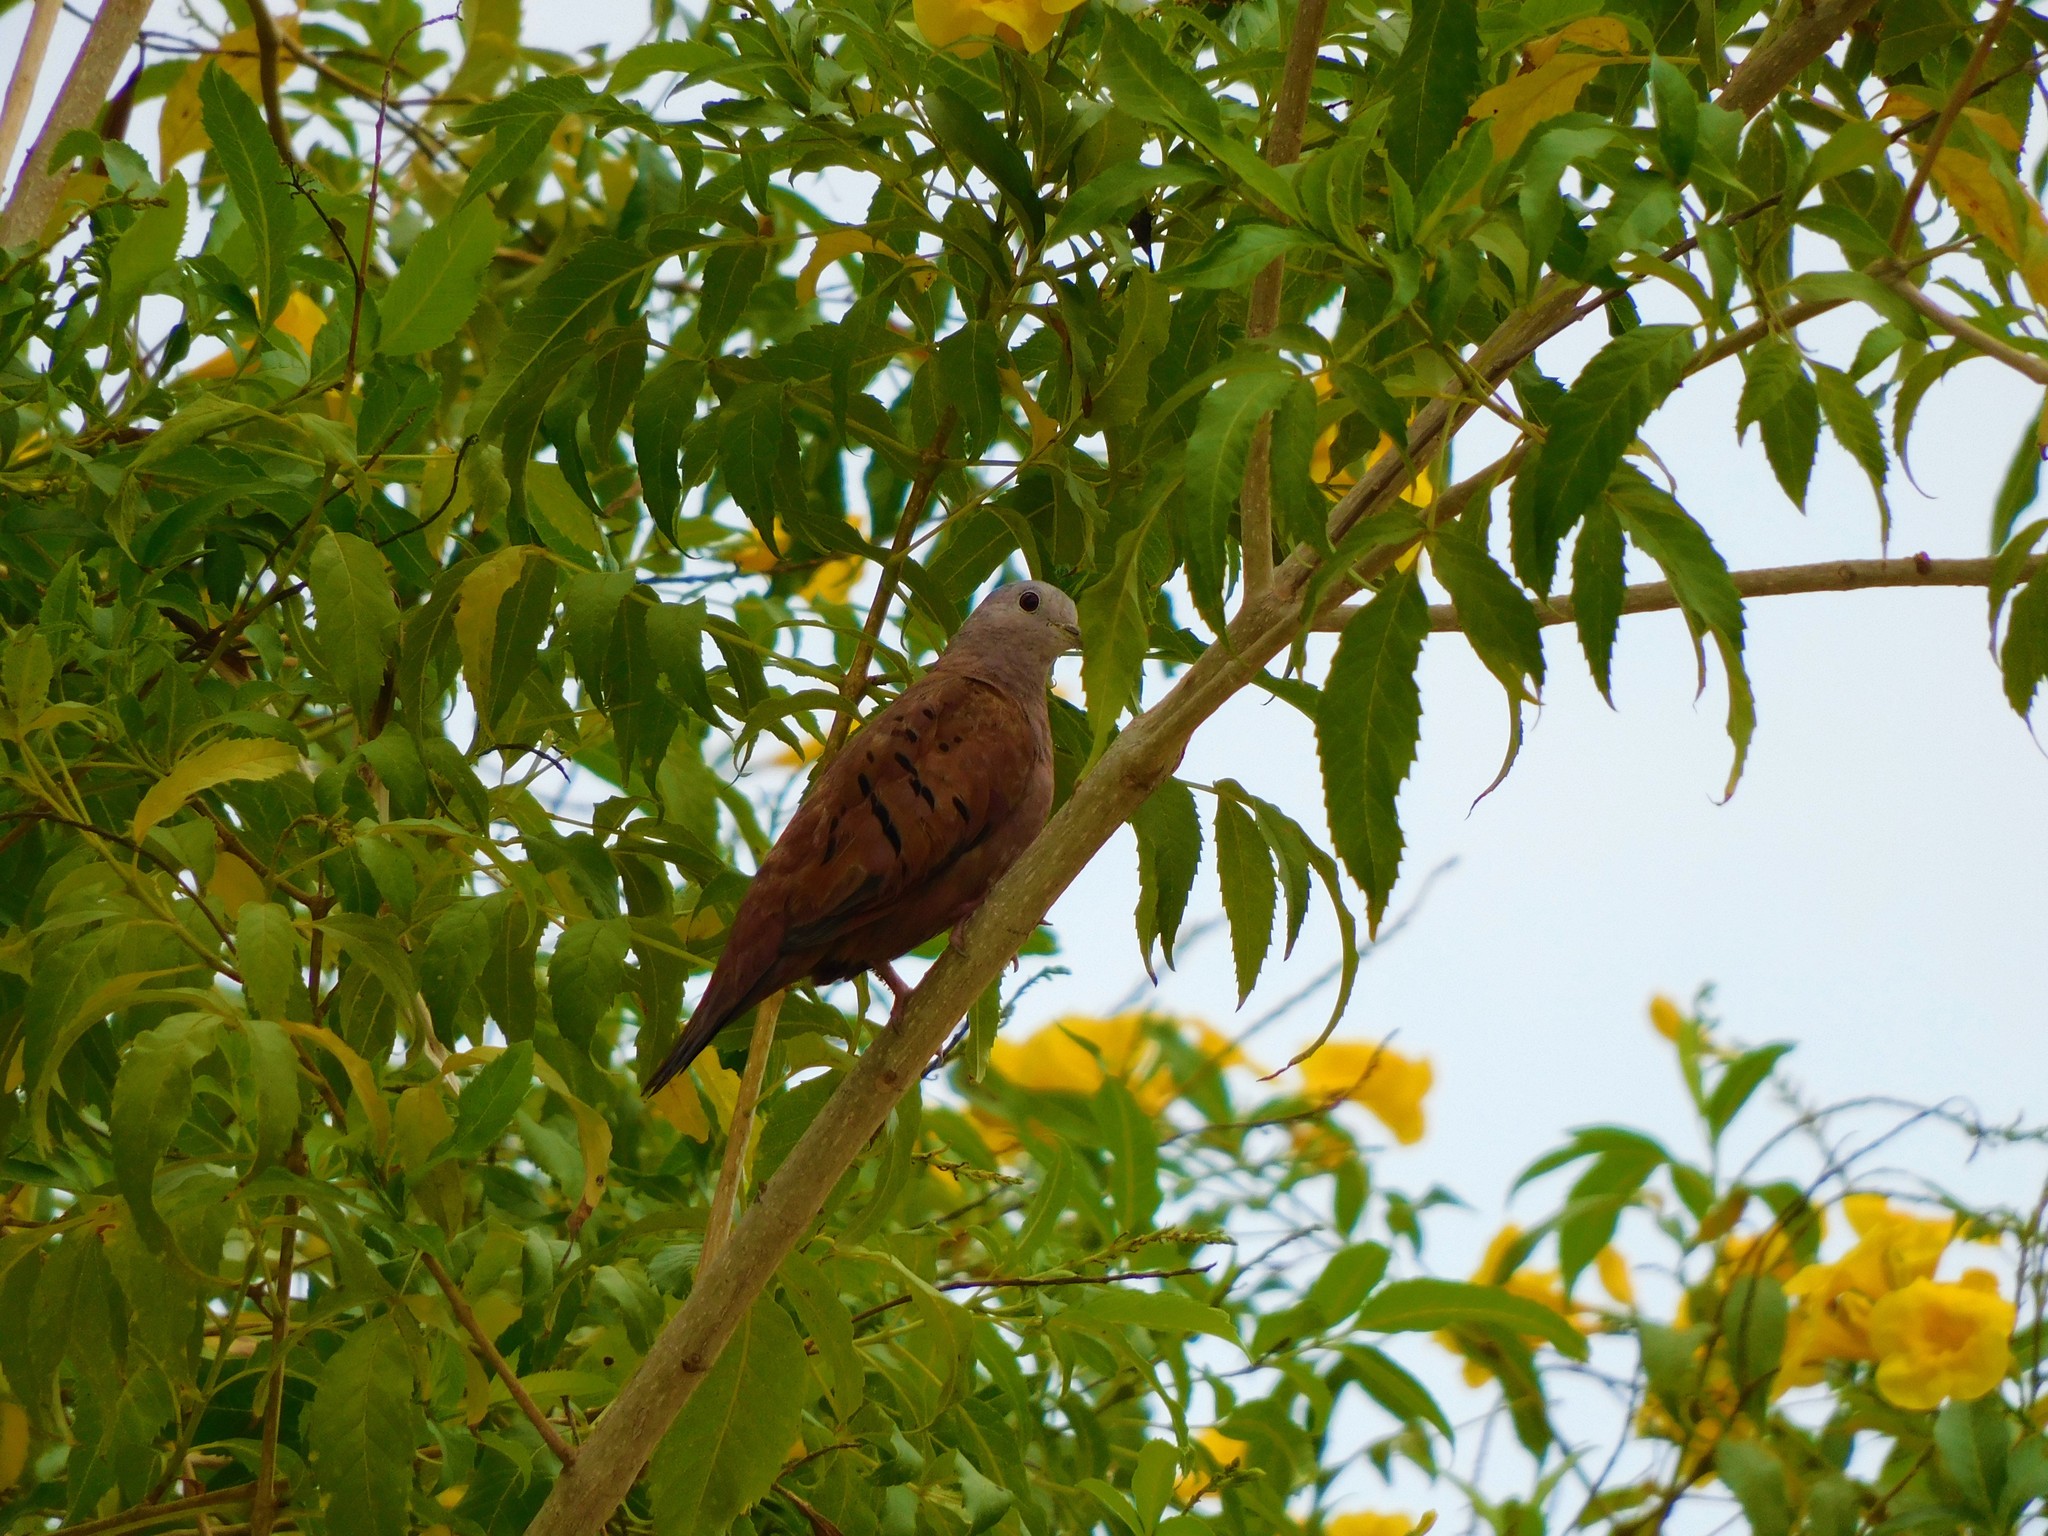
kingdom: Animalia
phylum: Chordata
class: Aves
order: Columbiformes
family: Columbidae
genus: Columbina
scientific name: Columbina talpacoti
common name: Ruddy ground dove
